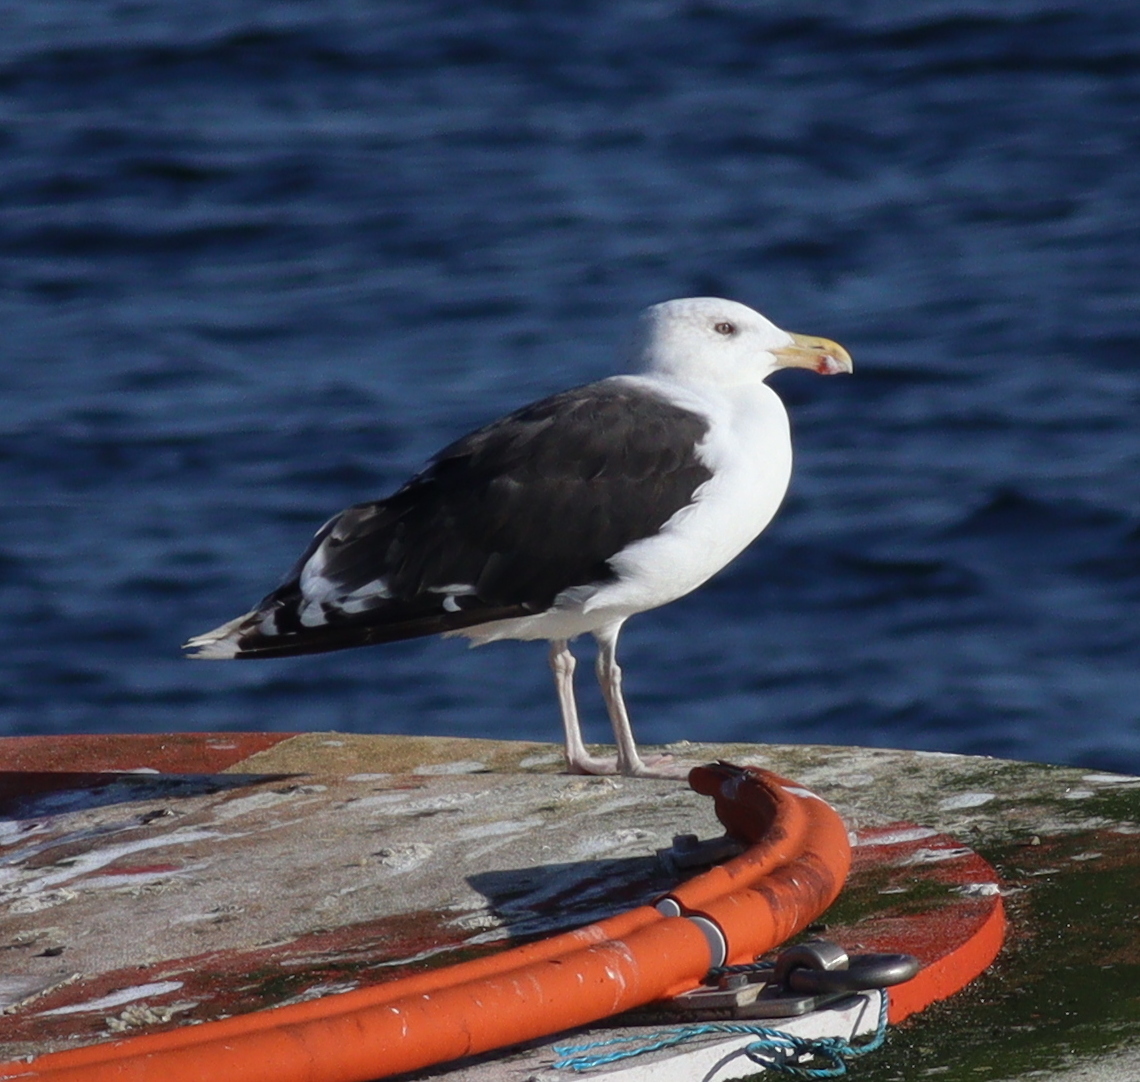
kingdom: Animalia
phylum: Chordata
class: Aves
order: Charadriiformes
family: Laridae
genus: Larus
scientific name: Larus marinus
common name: Great black-backed gull
